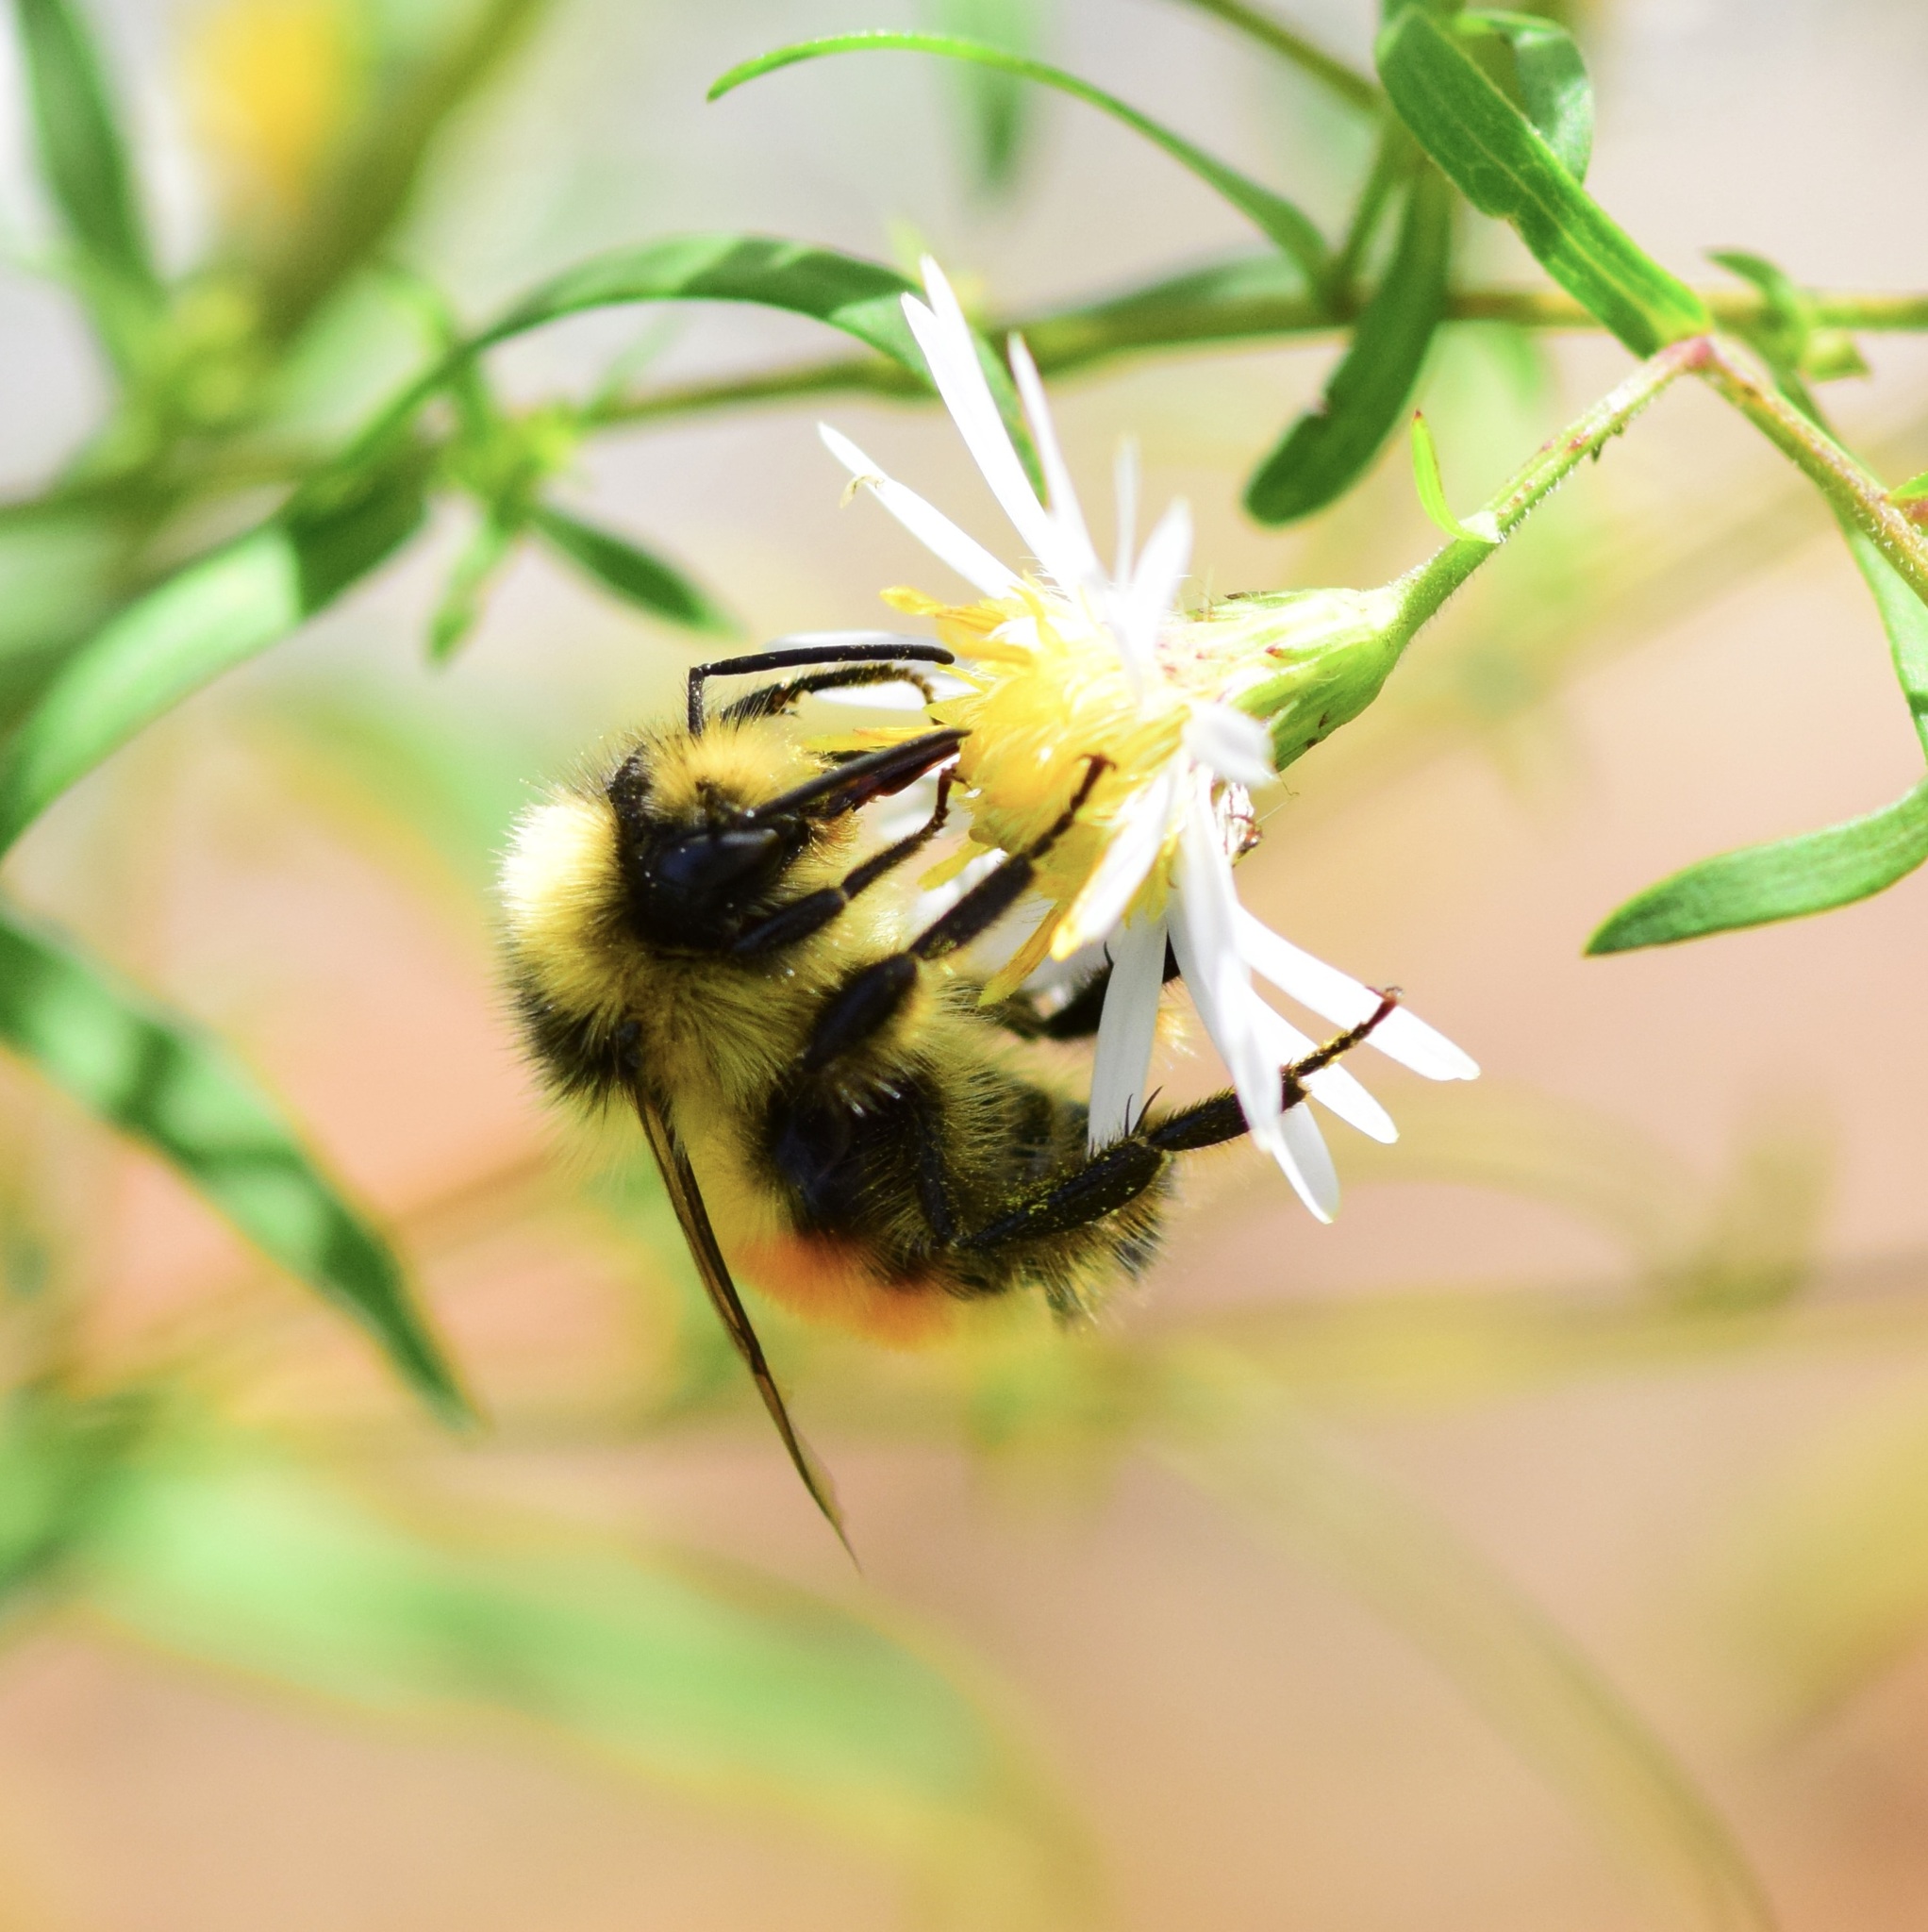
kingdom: Animalia
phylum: Arthropoda
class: Insecta
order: Hymenoptera
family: Apidae
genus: Bombus
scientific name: Bombus ternarius
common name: Tri-colored bumble bee
